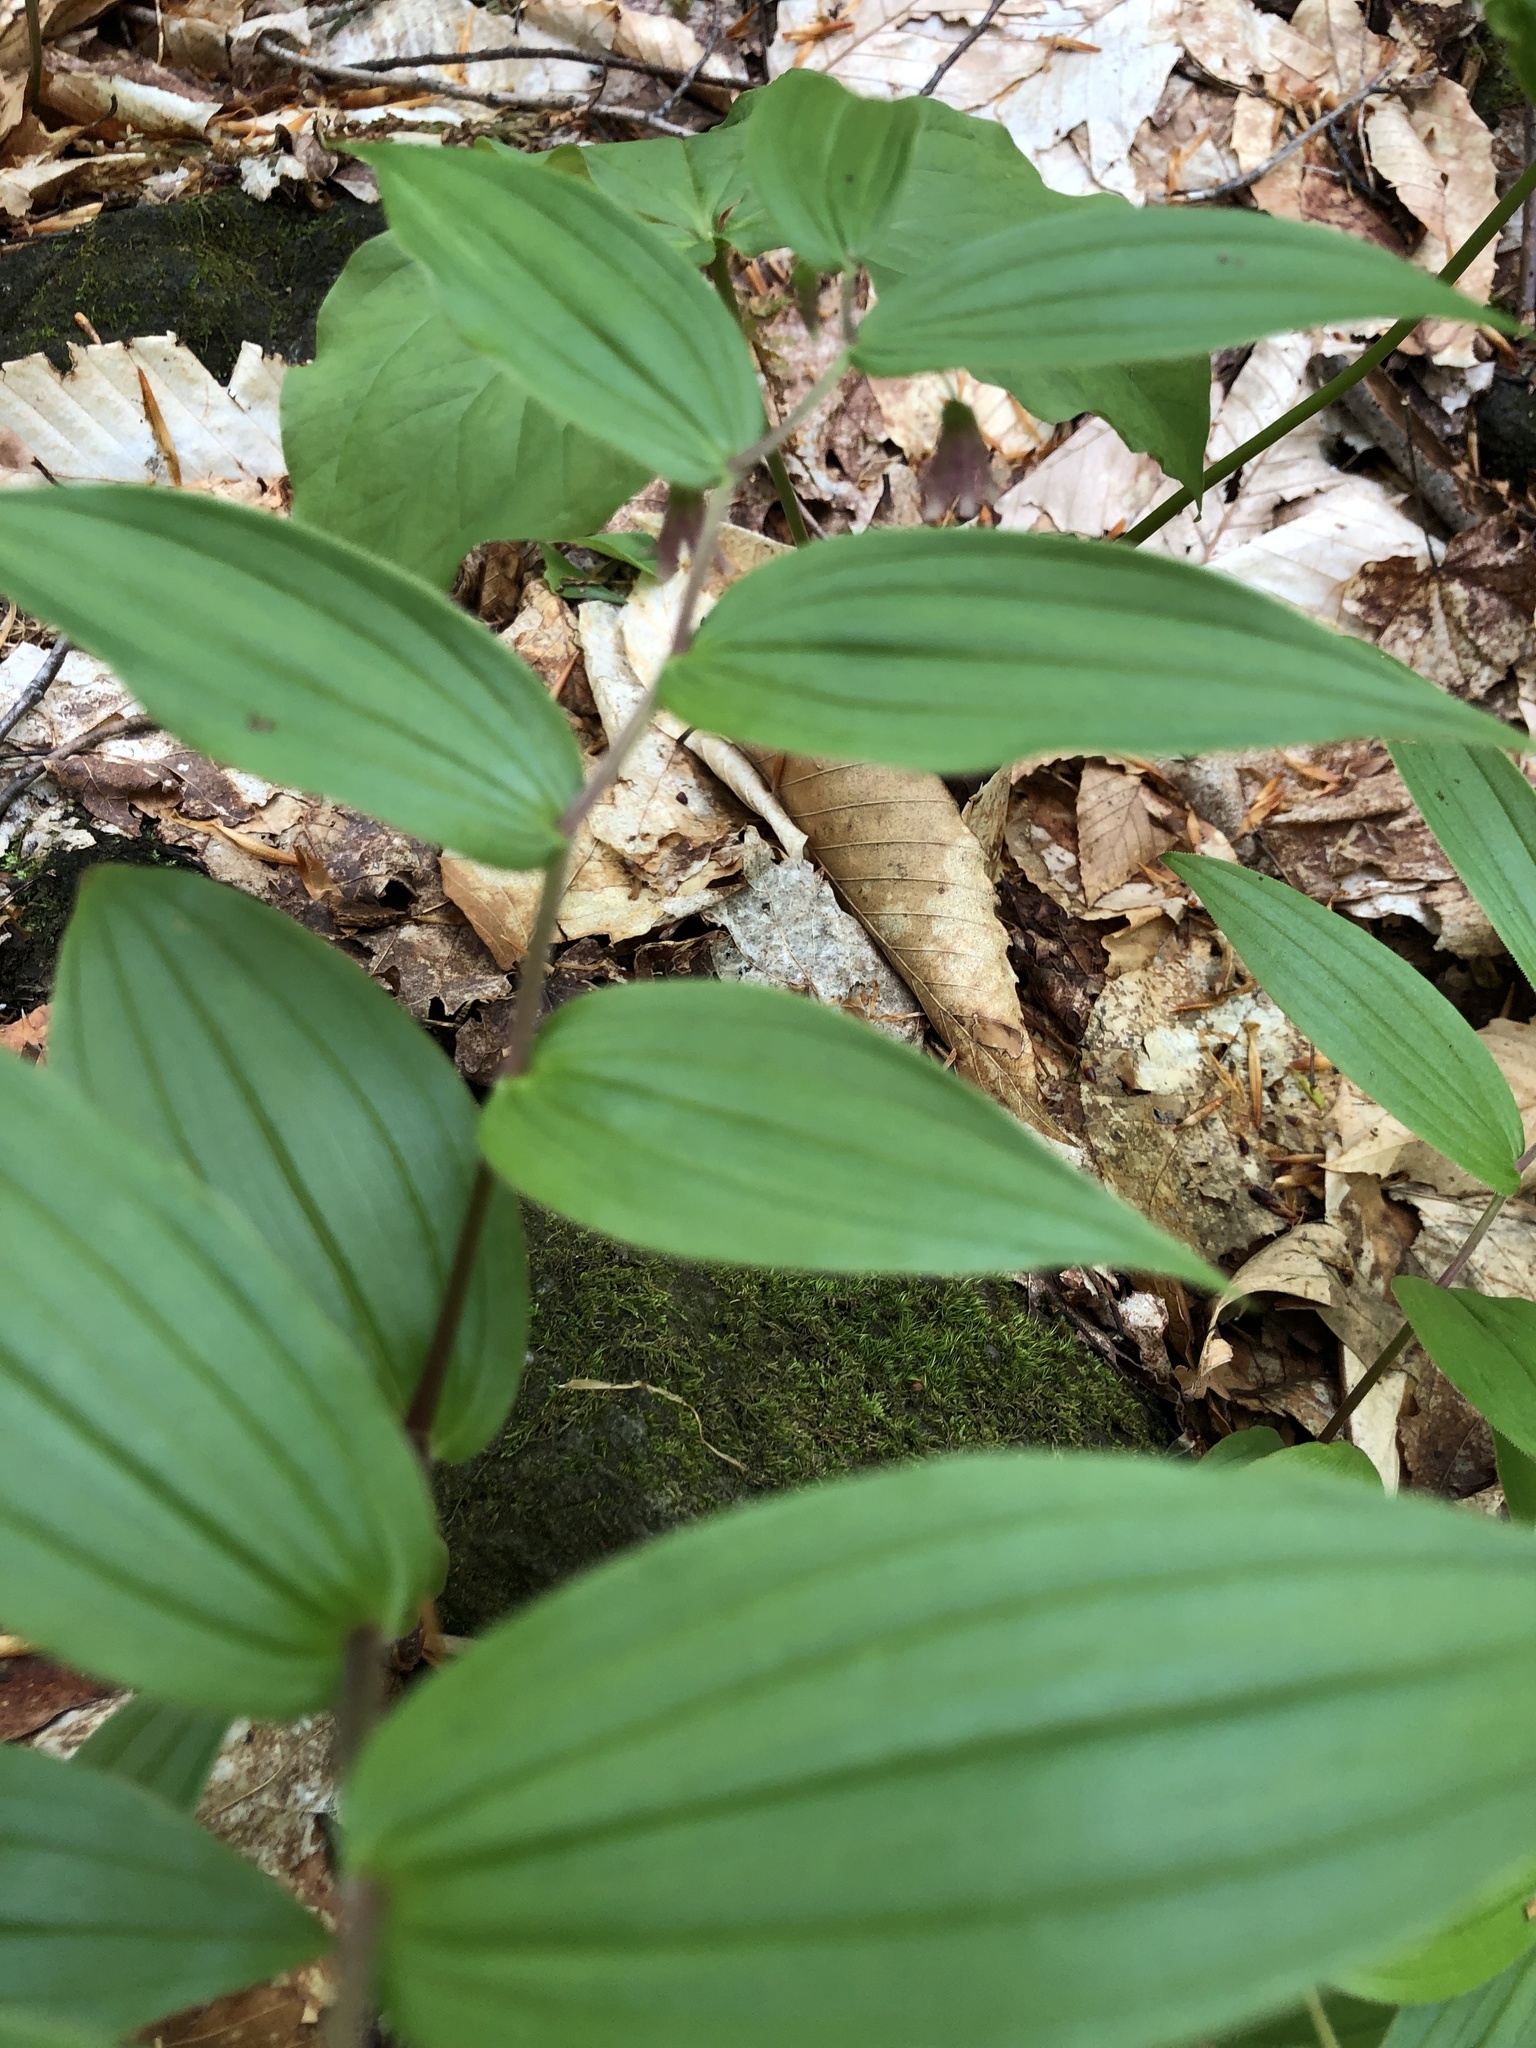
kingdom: Plantae
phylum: Tracheophyta
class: Liliopsida
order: Liliales
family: Liliaceae
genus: Streptopus
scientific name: Streptopus lanceolatus
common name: Rose mandarin
